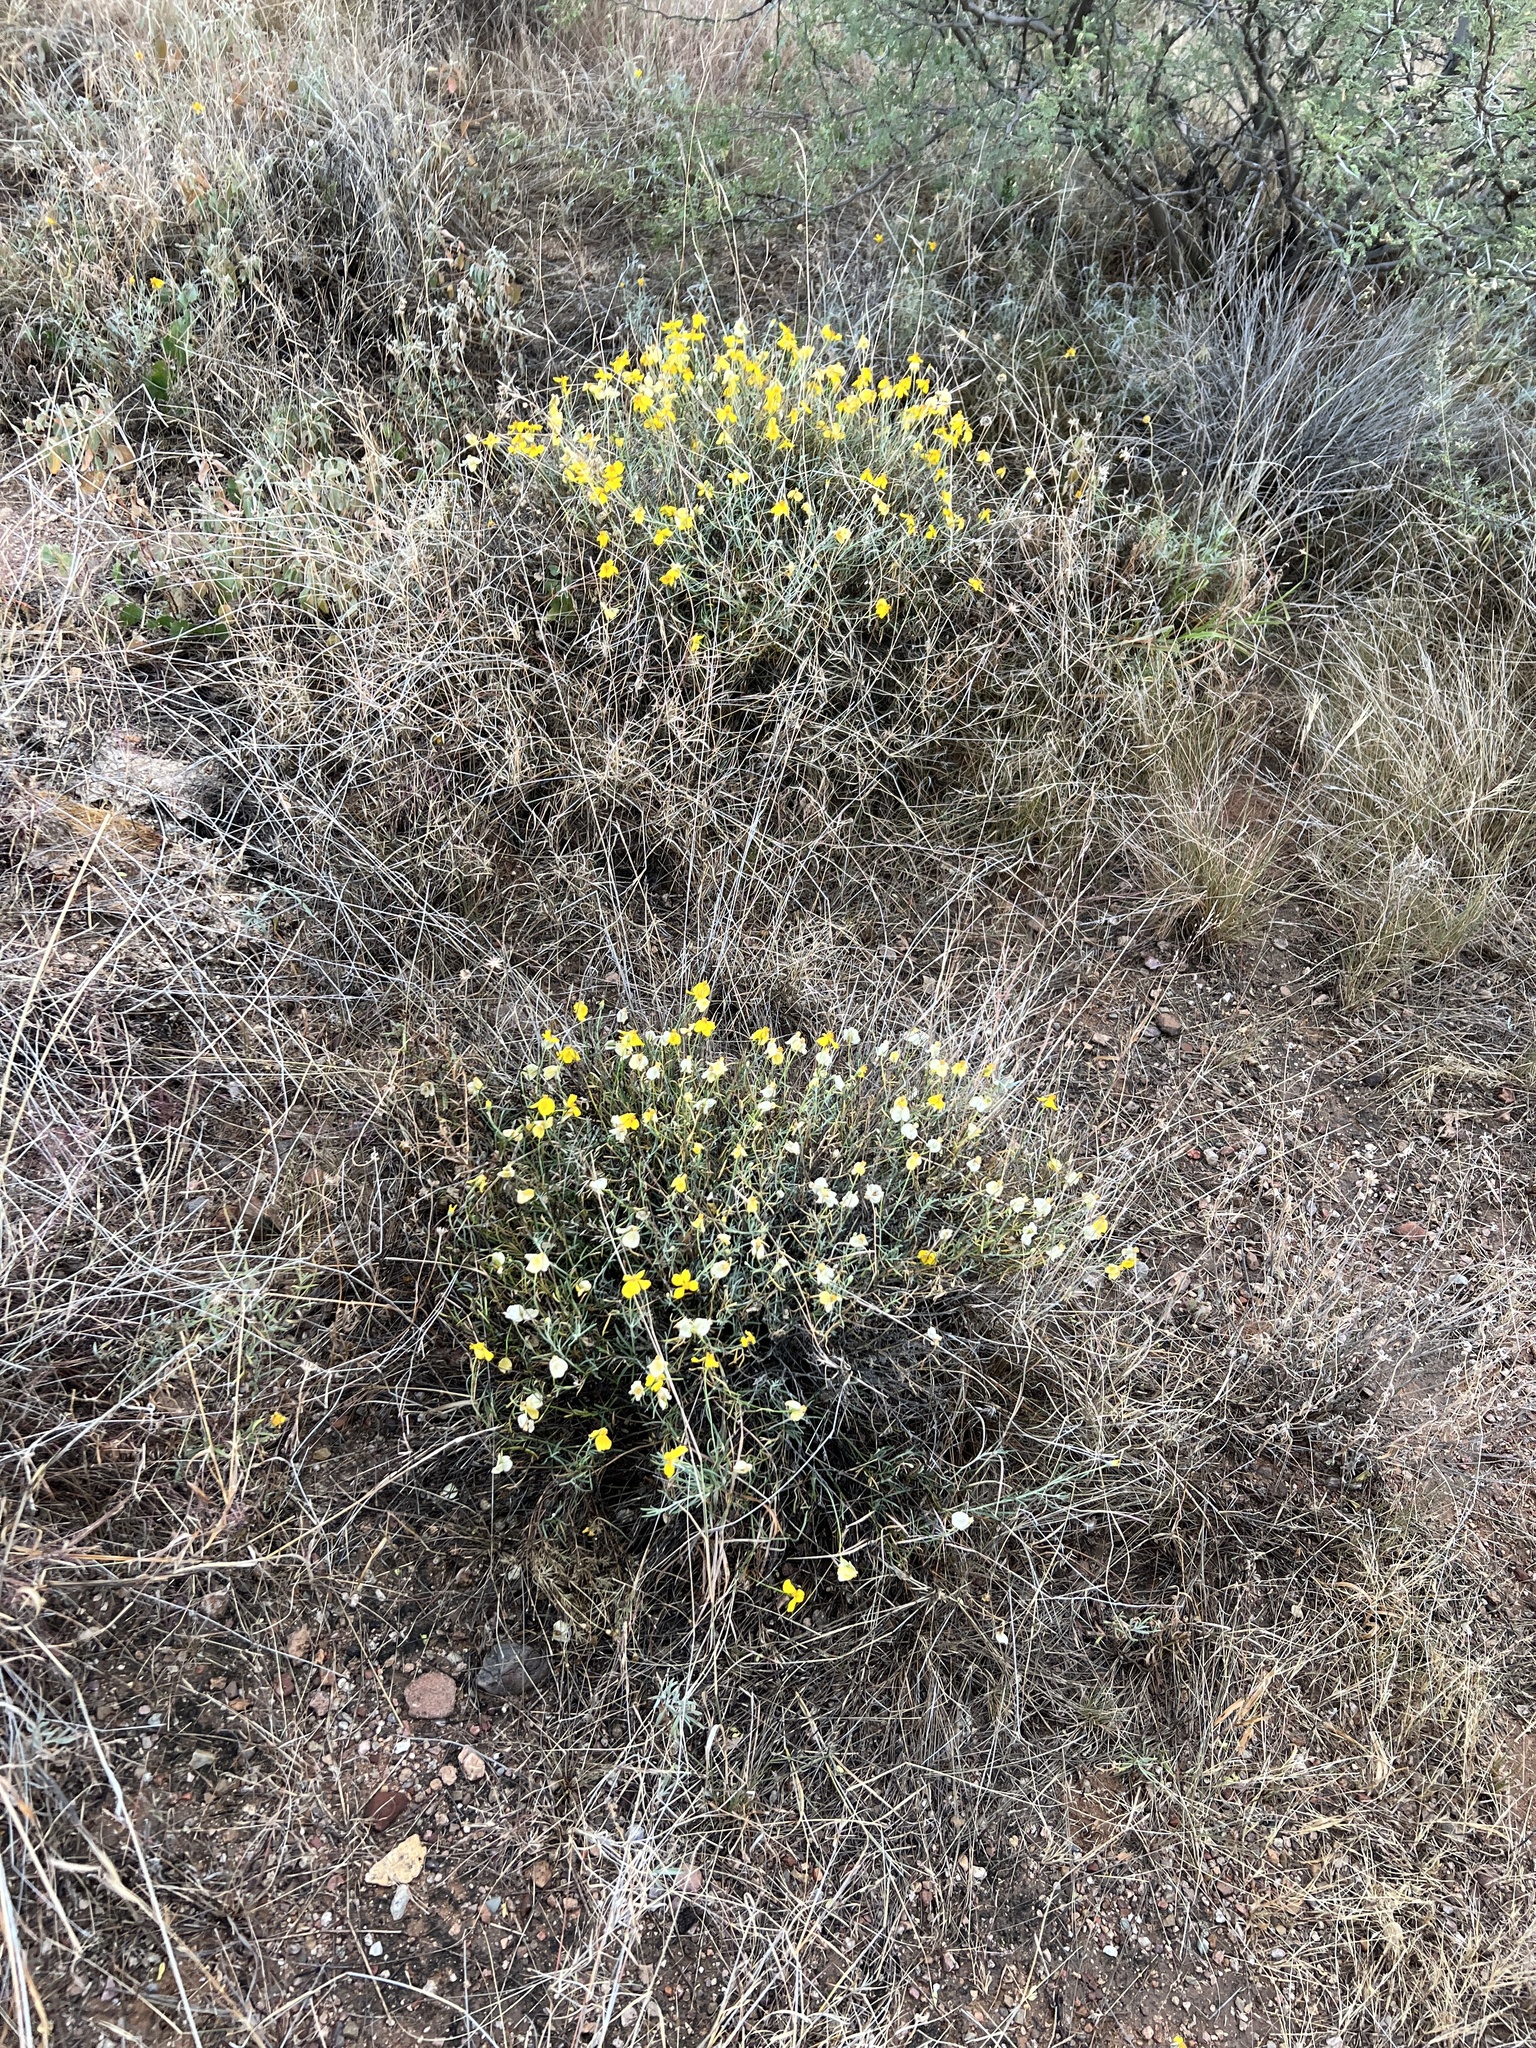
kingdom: Plantae
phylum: Tracheophyta
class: Magnoliopsida
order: Asterales
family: Asteraceae
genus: Psilostrophe
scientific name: Psilostrophe cooperi
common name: White-stem paper-flower
